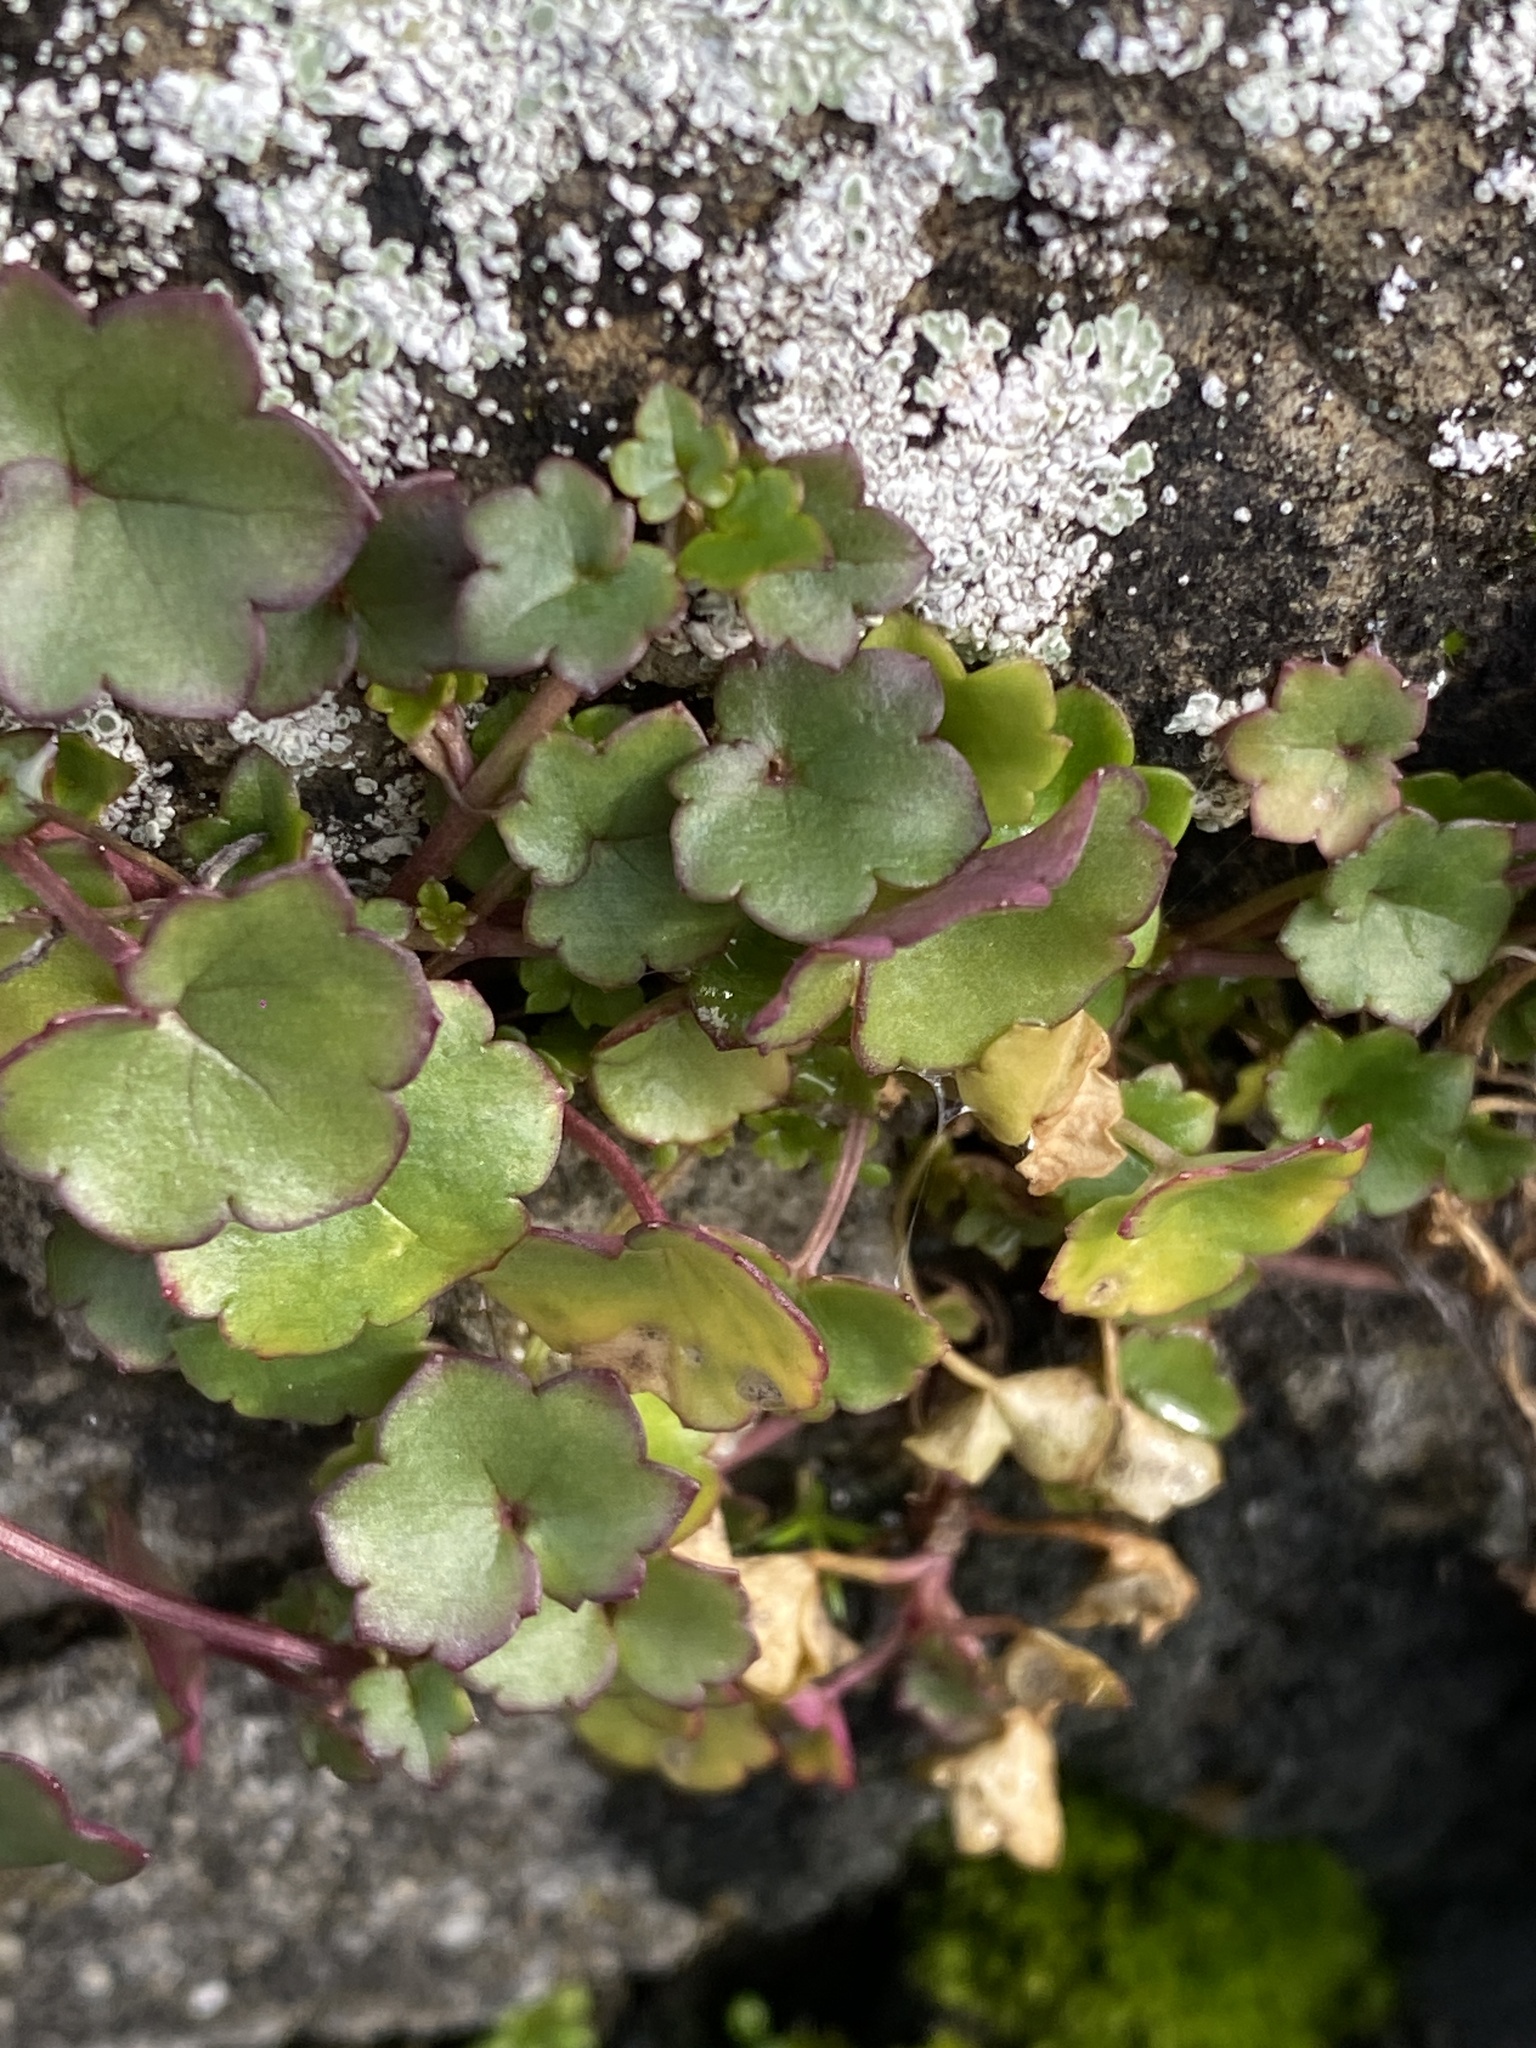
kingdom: Plantae
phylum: Tracheophyta
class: Magnoliopsida
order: Lamiales
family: Plantaginaceae
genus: Cymbalaria
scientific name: Cymbalaria muralis
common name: Ivy-leaved toadflax
